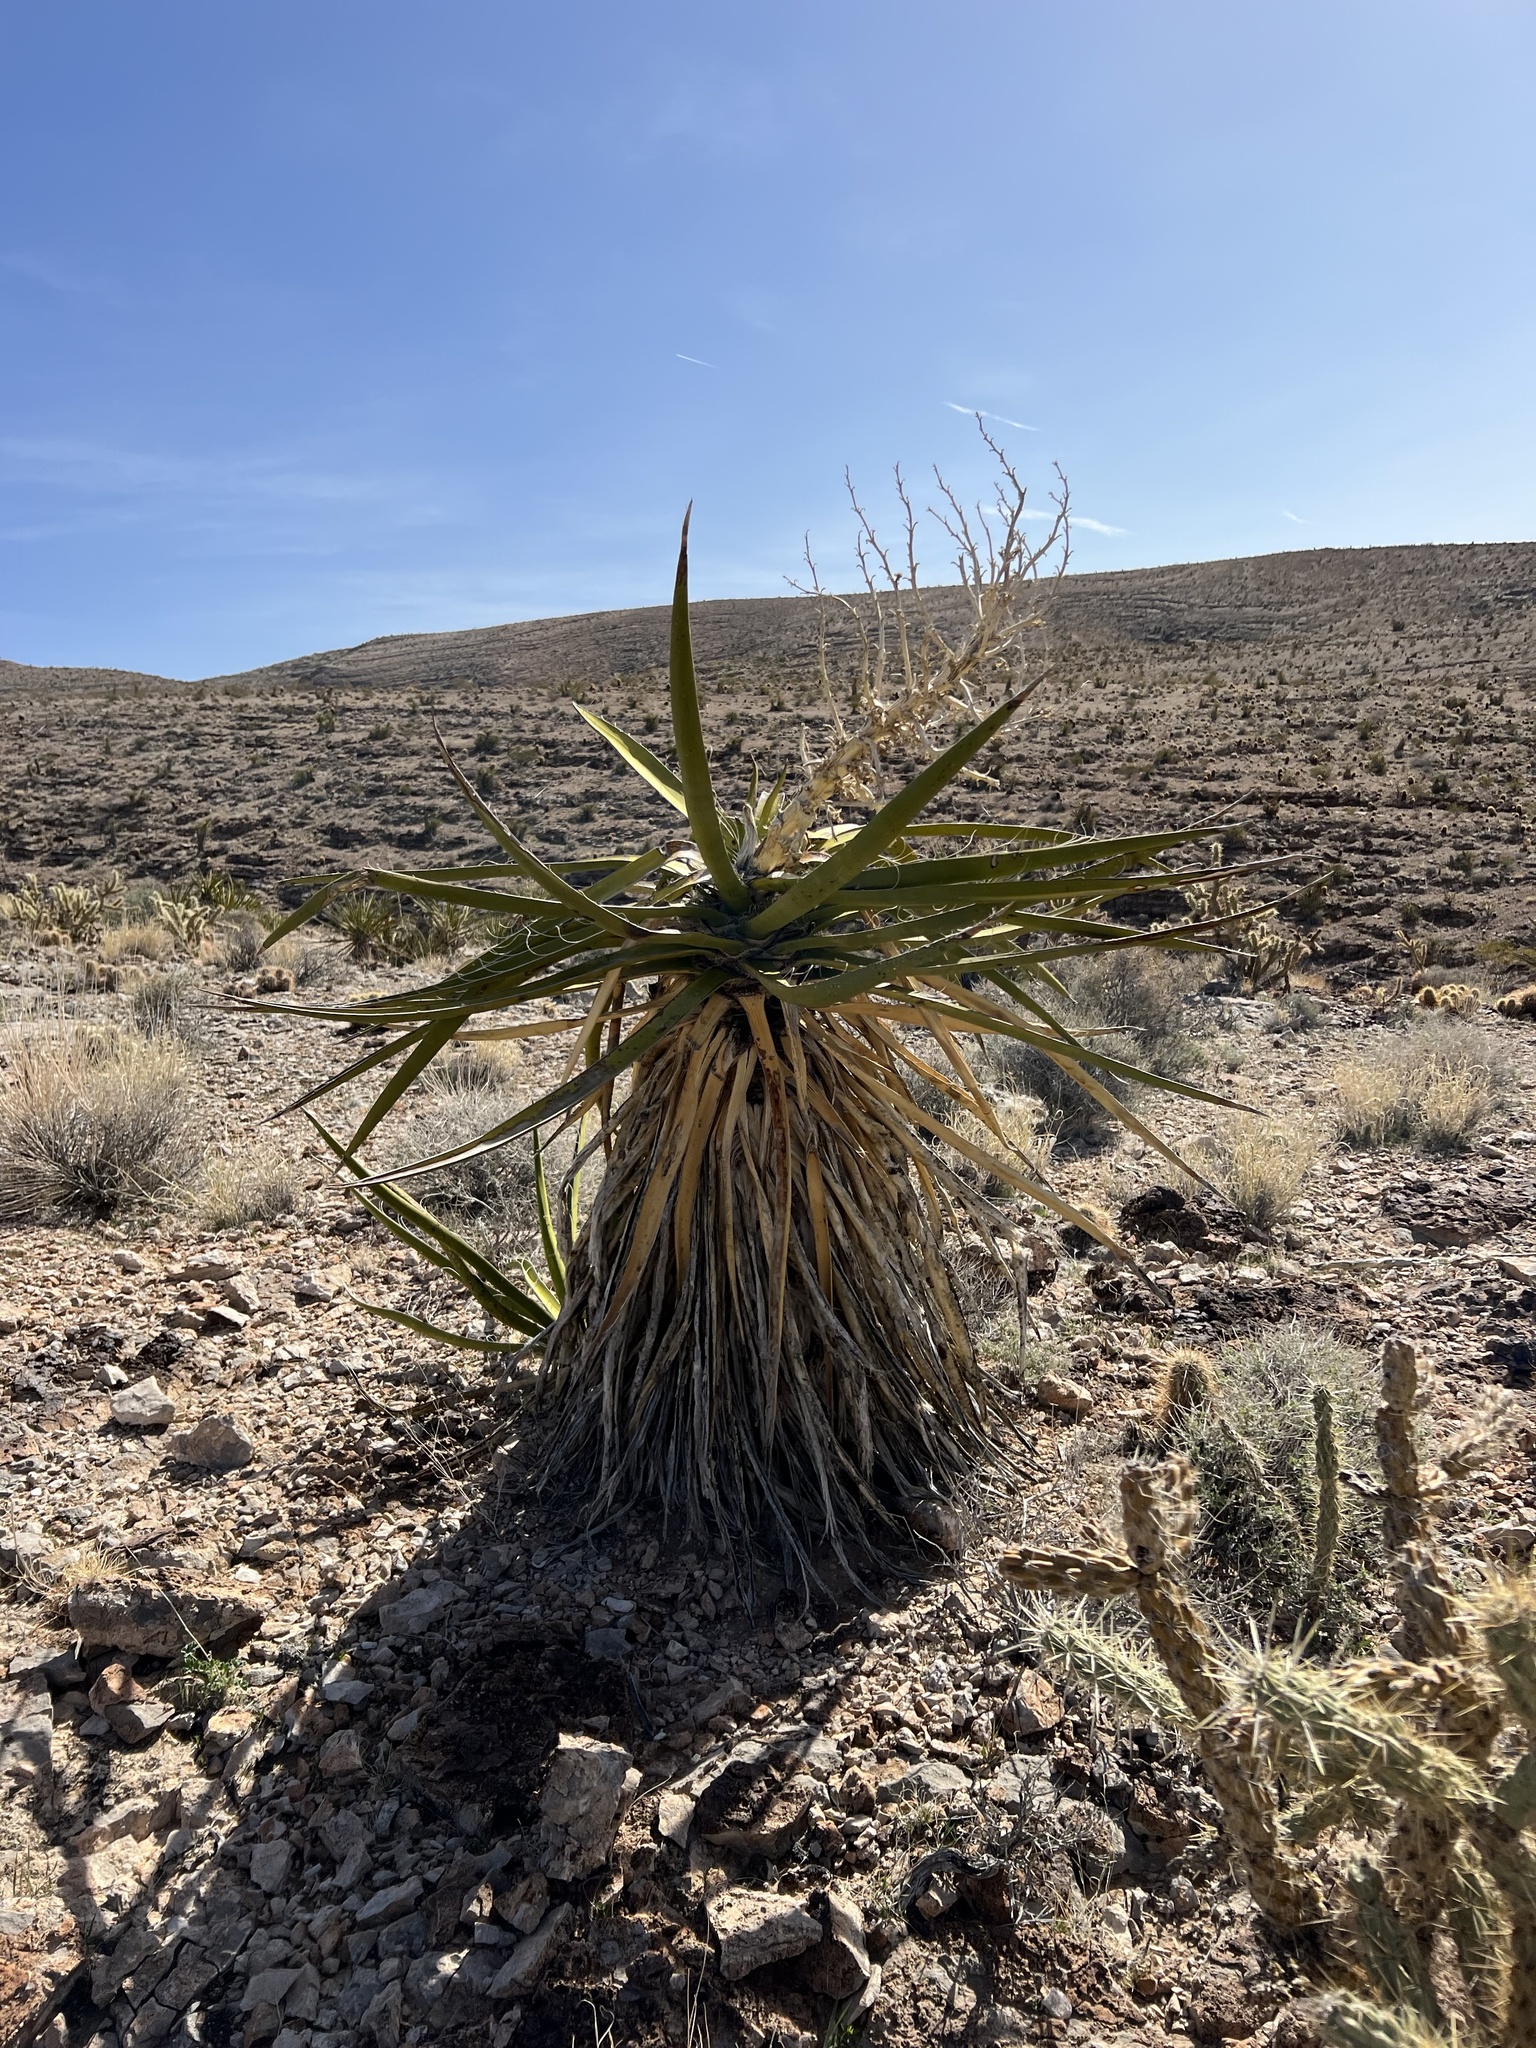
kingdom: Plantae
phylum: Tracheophyta
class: Liliopsida
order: Asparagales
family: Asparagaceae
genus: Yucca
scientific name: Yucca schidigera
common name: Mojave yucca
